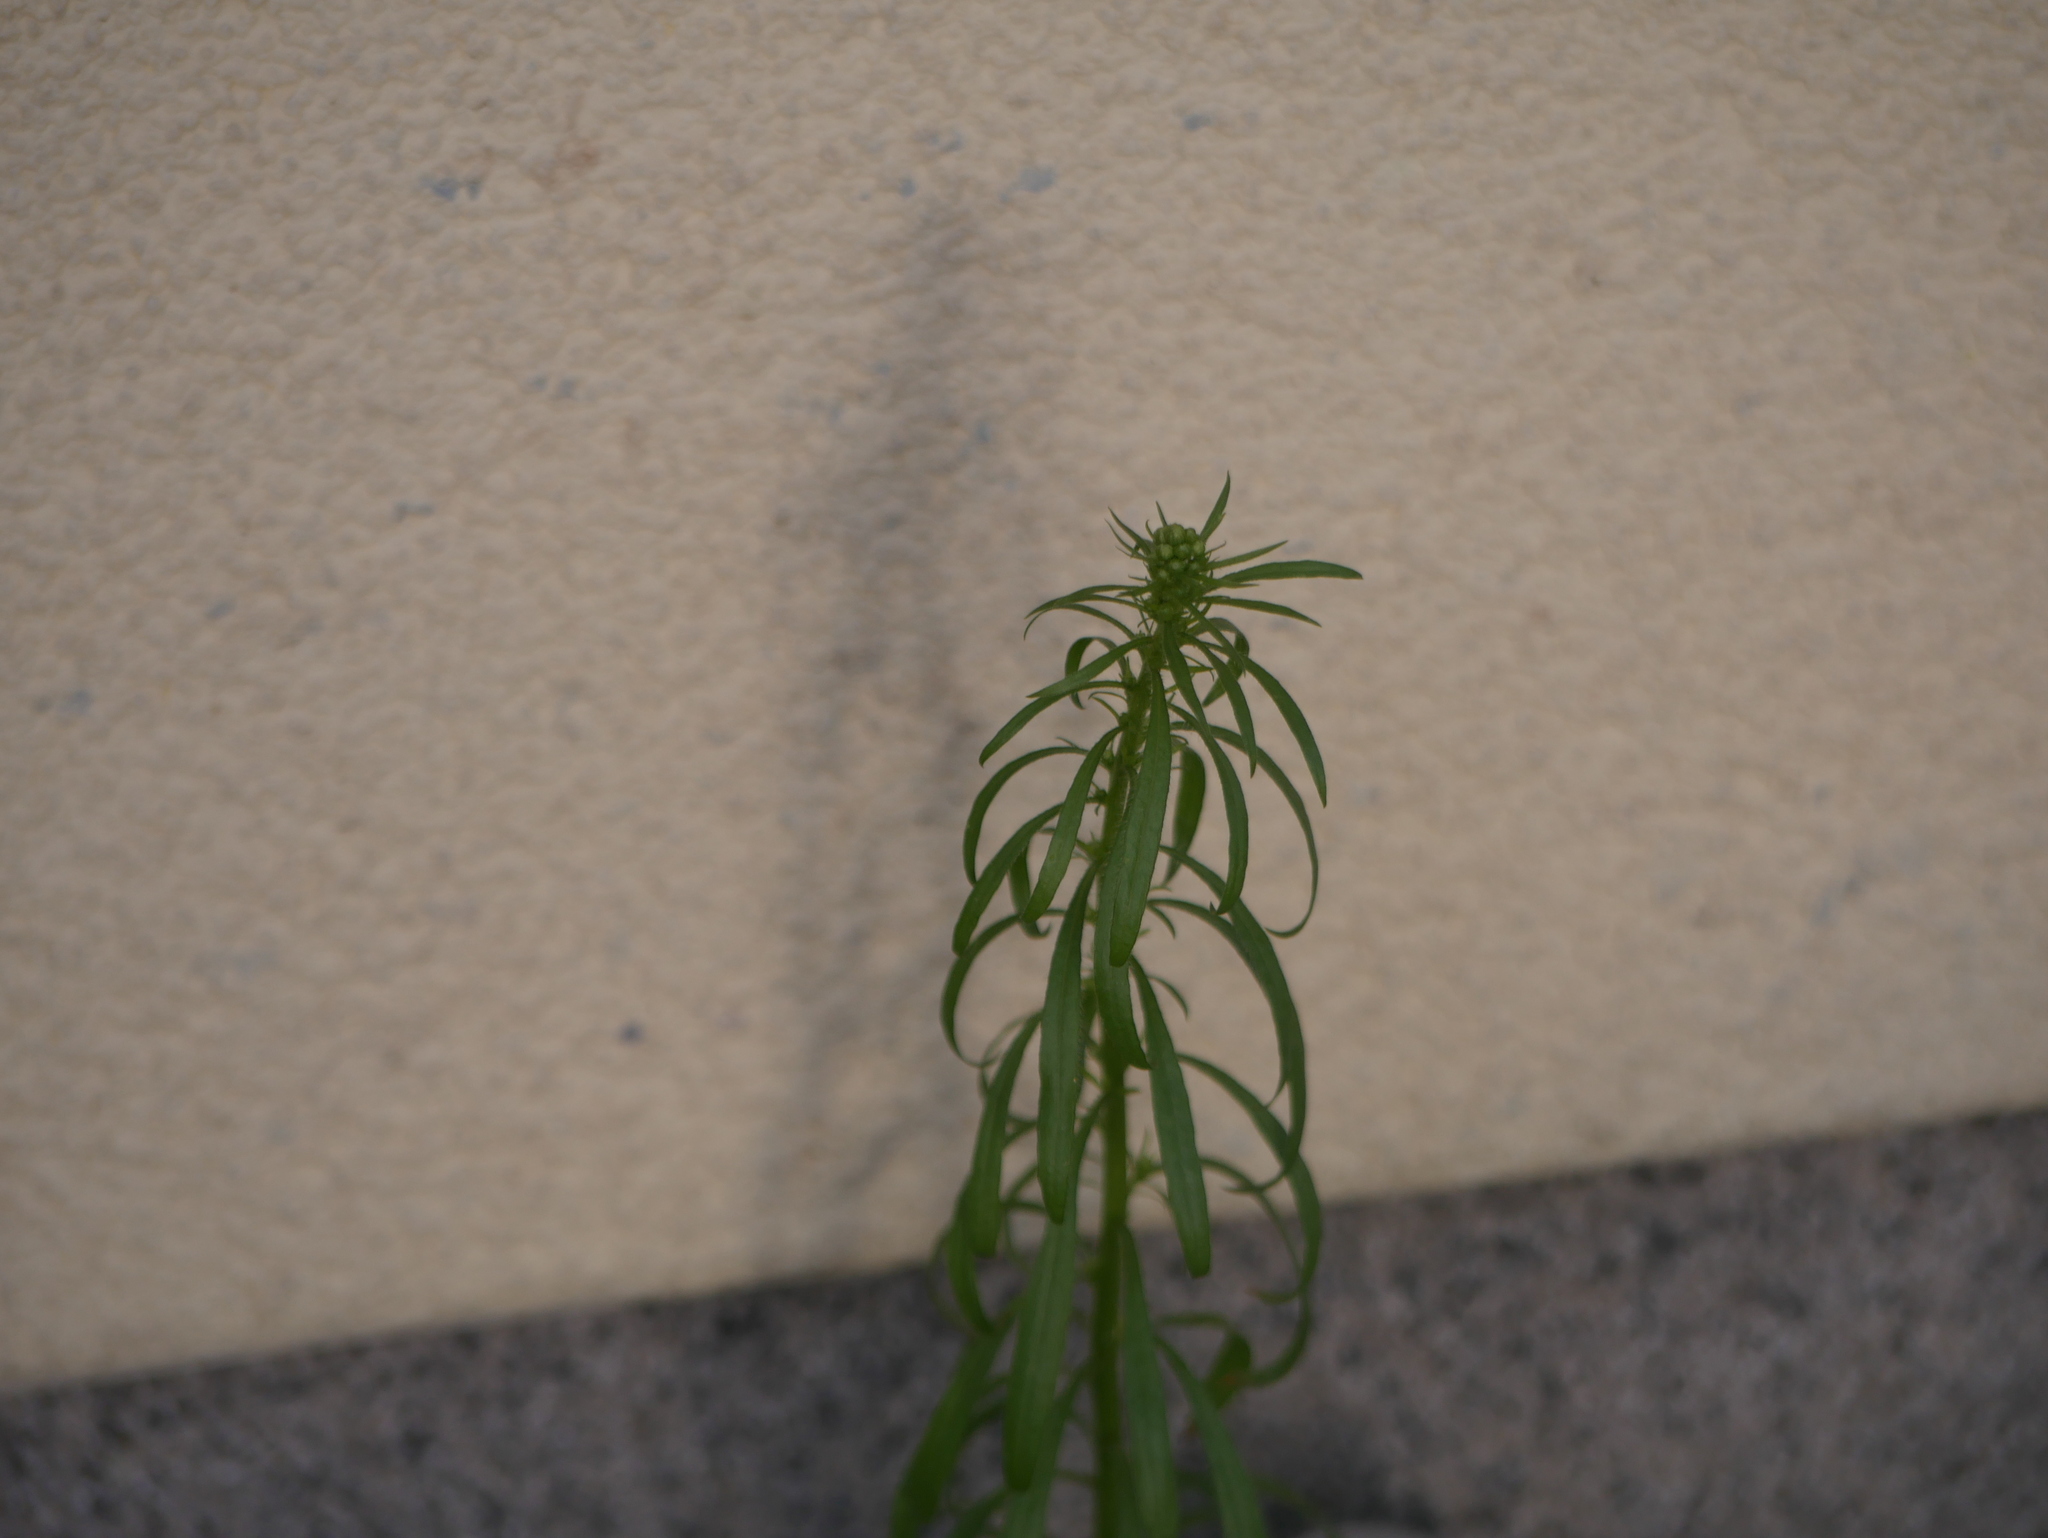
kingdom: Plantae
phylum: Tracheophyta
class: Magnoliopsida
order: Asterales
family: Asteraceae
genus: Erigeron
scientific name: Erigeron canadensis
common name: Canadian fleabane
